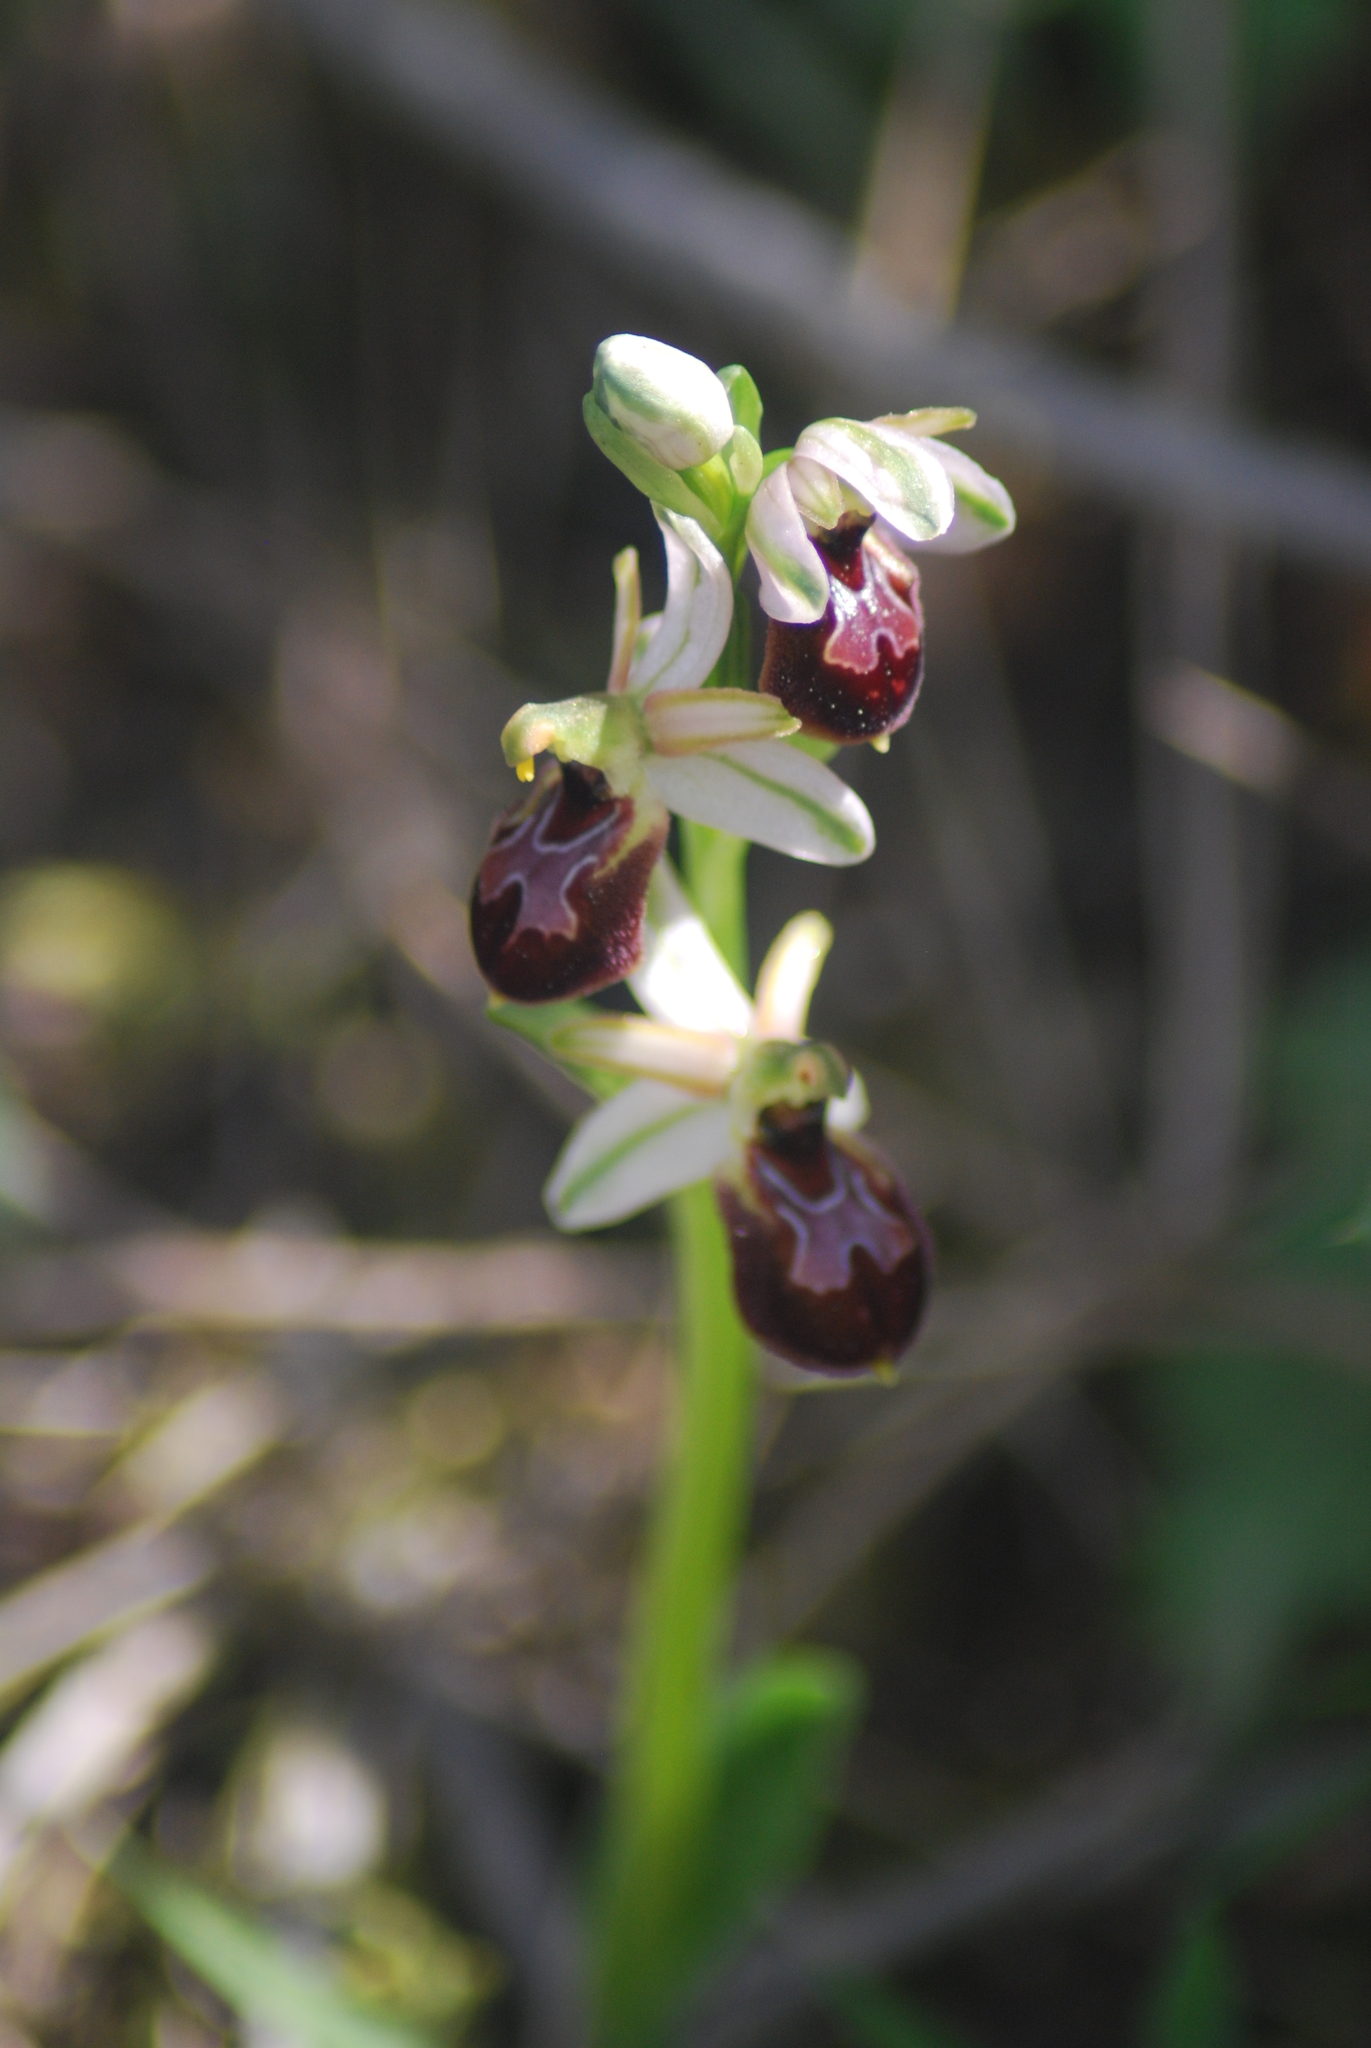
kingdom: Plantae
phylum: Tracheophyta
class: Liliopsida
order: Asparagales
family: Orchidaceae
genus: Ophrys
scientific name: Ophrys holosericea
